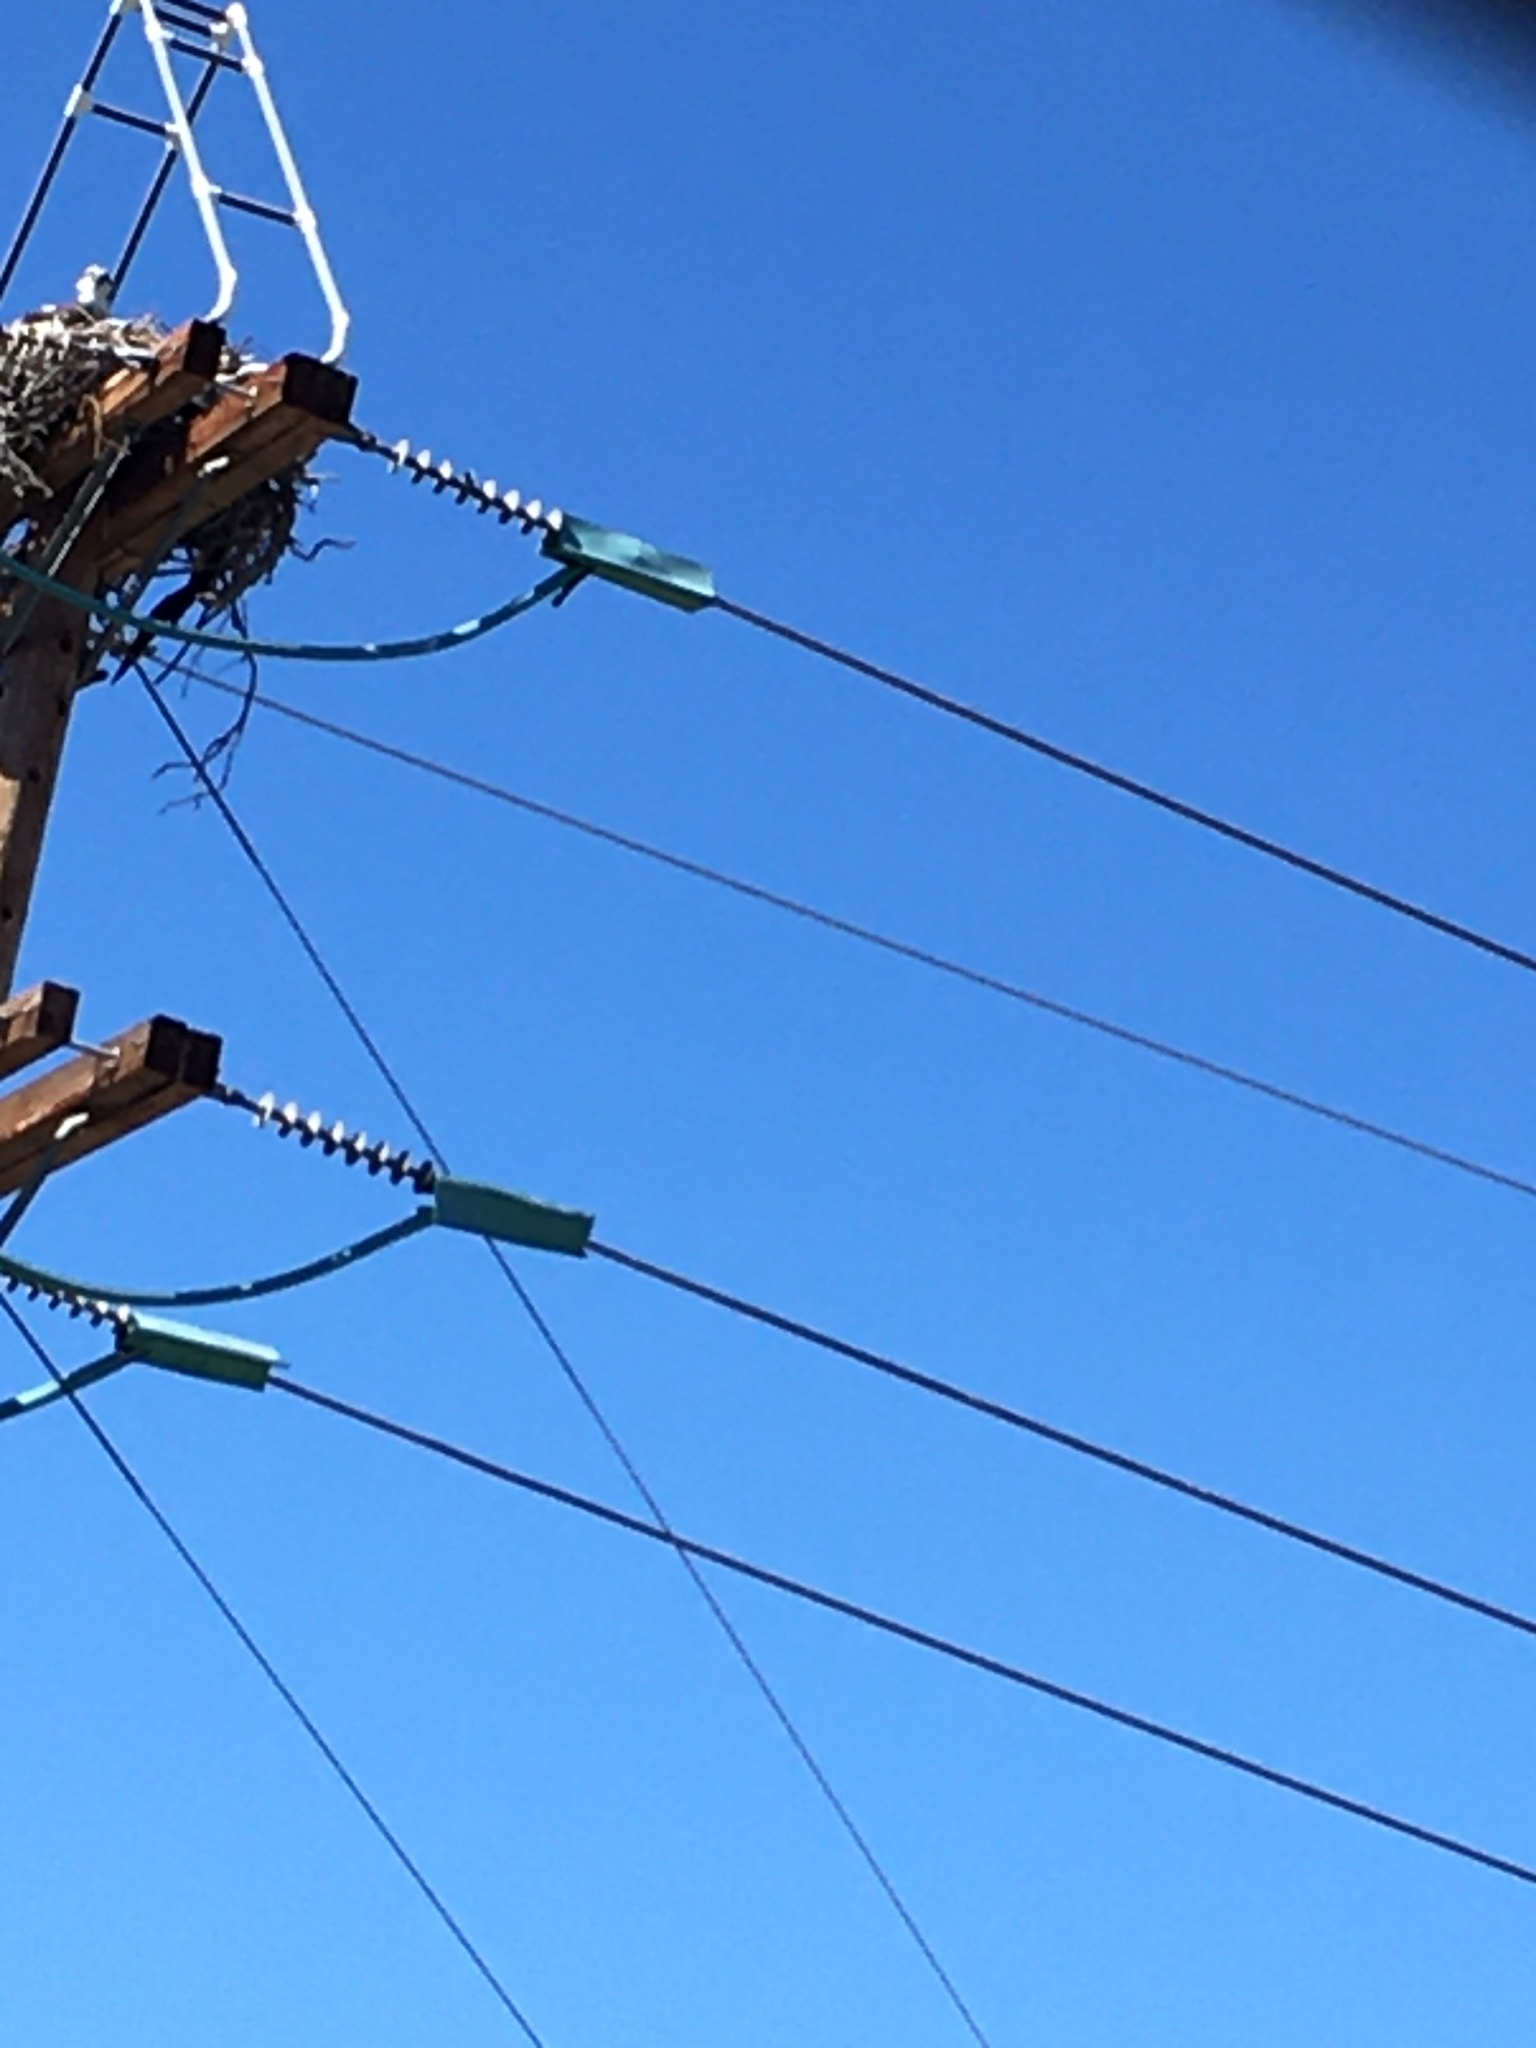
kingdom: Animalia
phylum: Chordata
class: Aves
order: Accipitriformes
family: Pandionidae
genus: Pandion
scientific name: Pandion haliaetus
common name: Osprey
